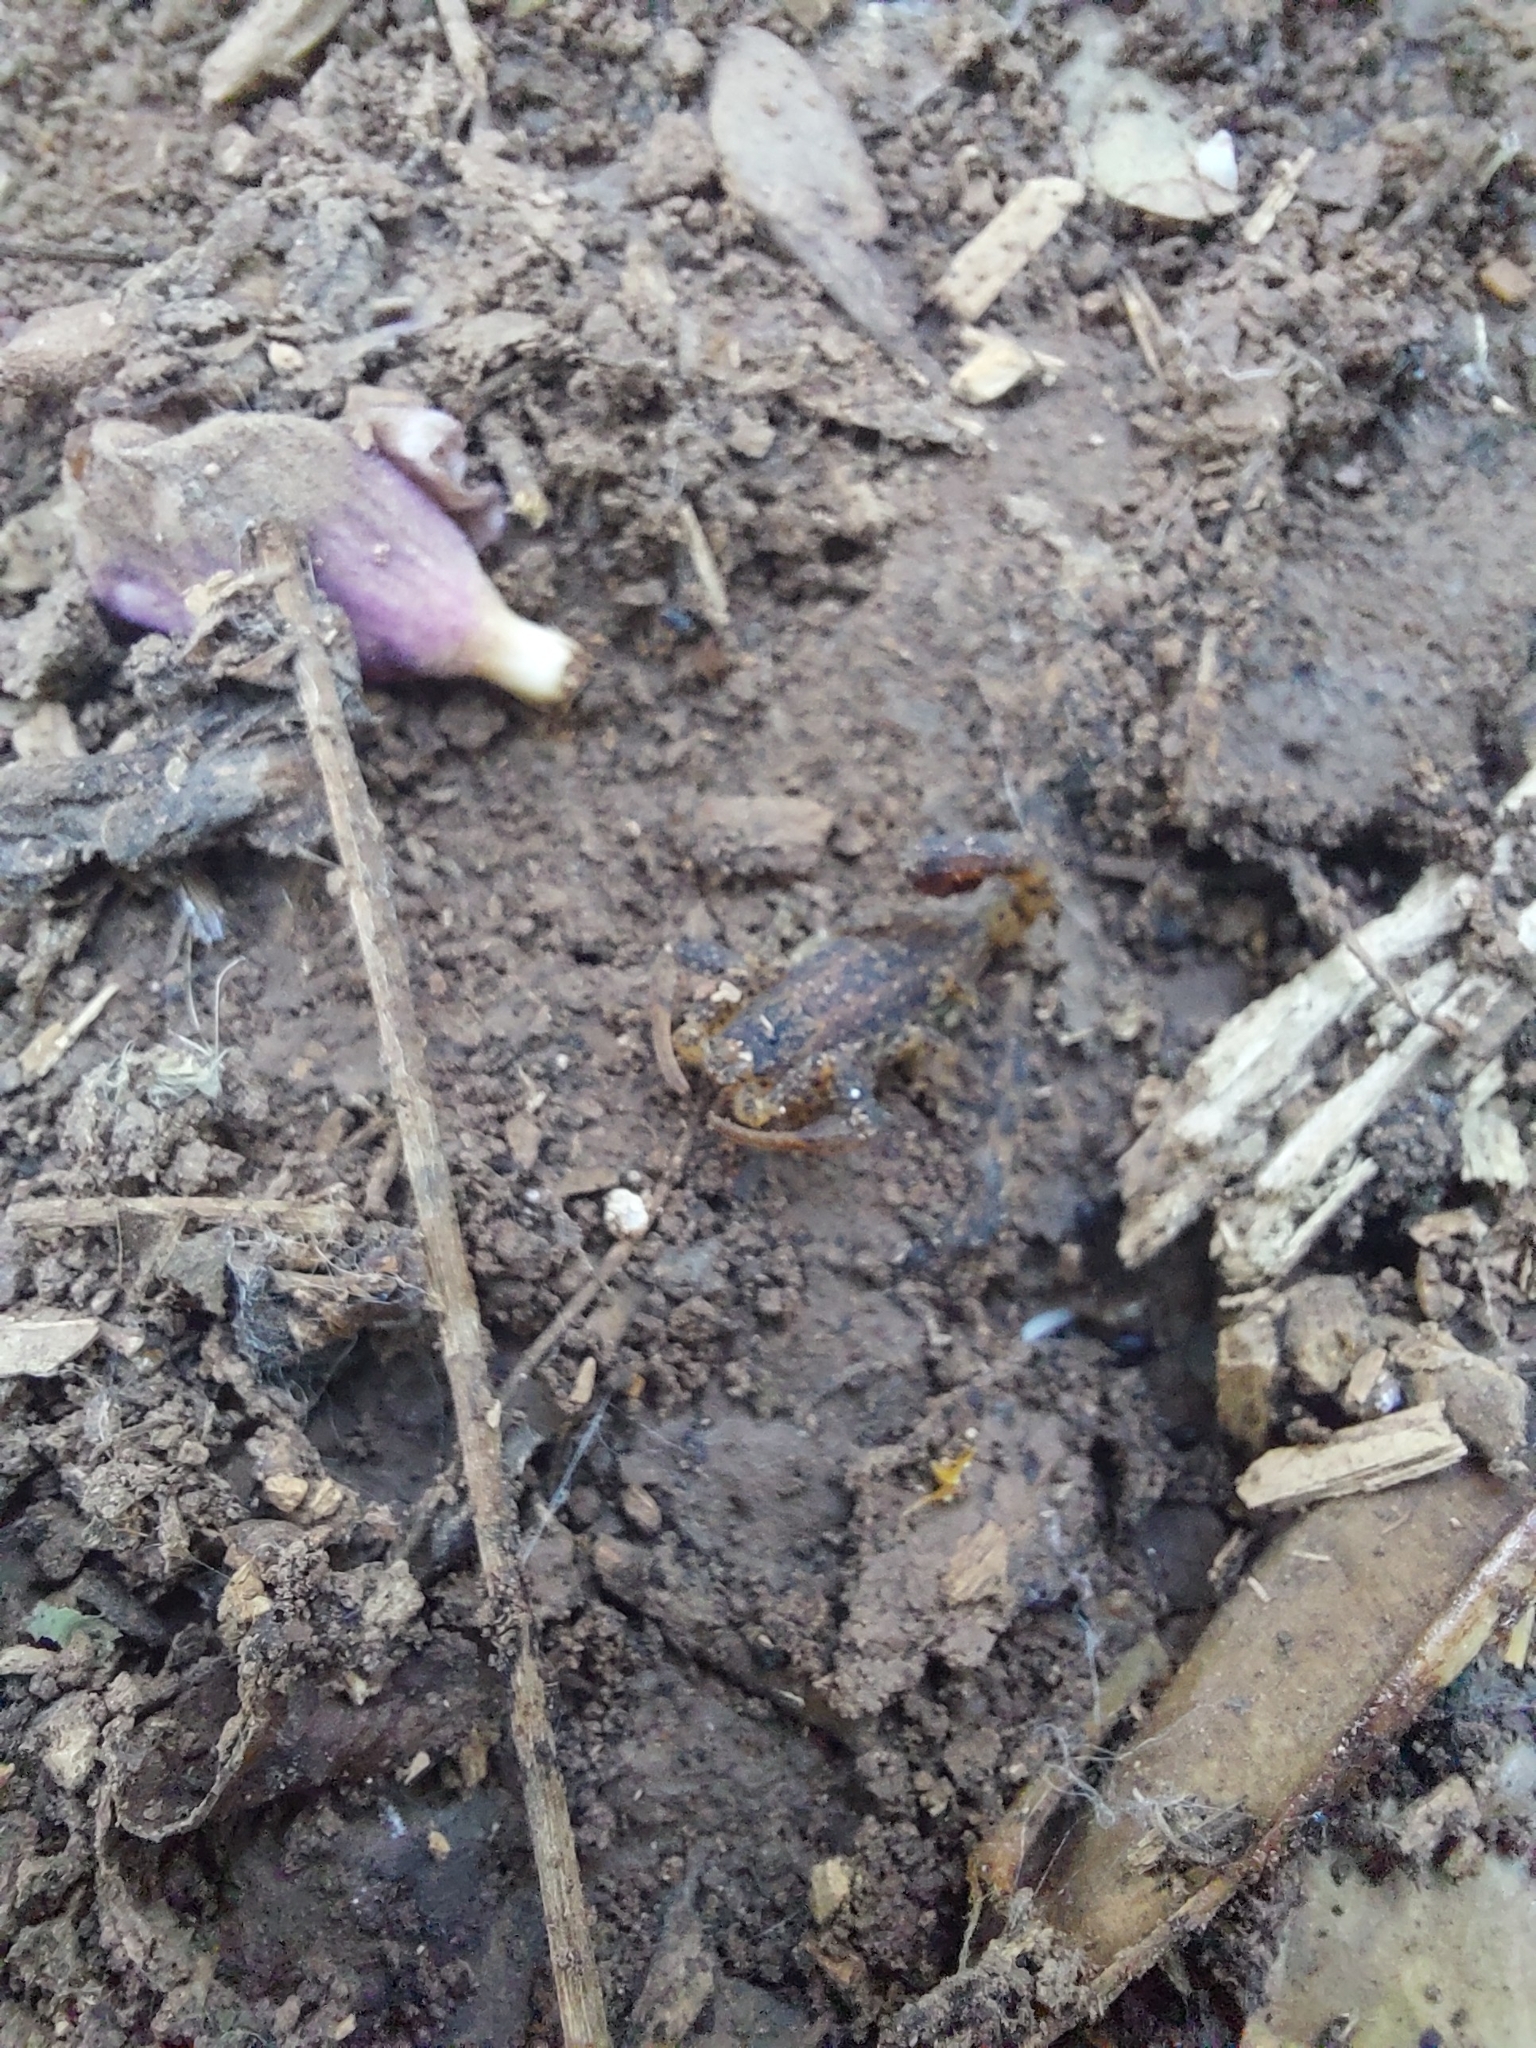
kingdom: Animalia
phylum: Arthropoda
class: Arachnida
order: Scorpiones
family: Buthidae
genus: Tityus
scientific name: Tityus paraguayensis
